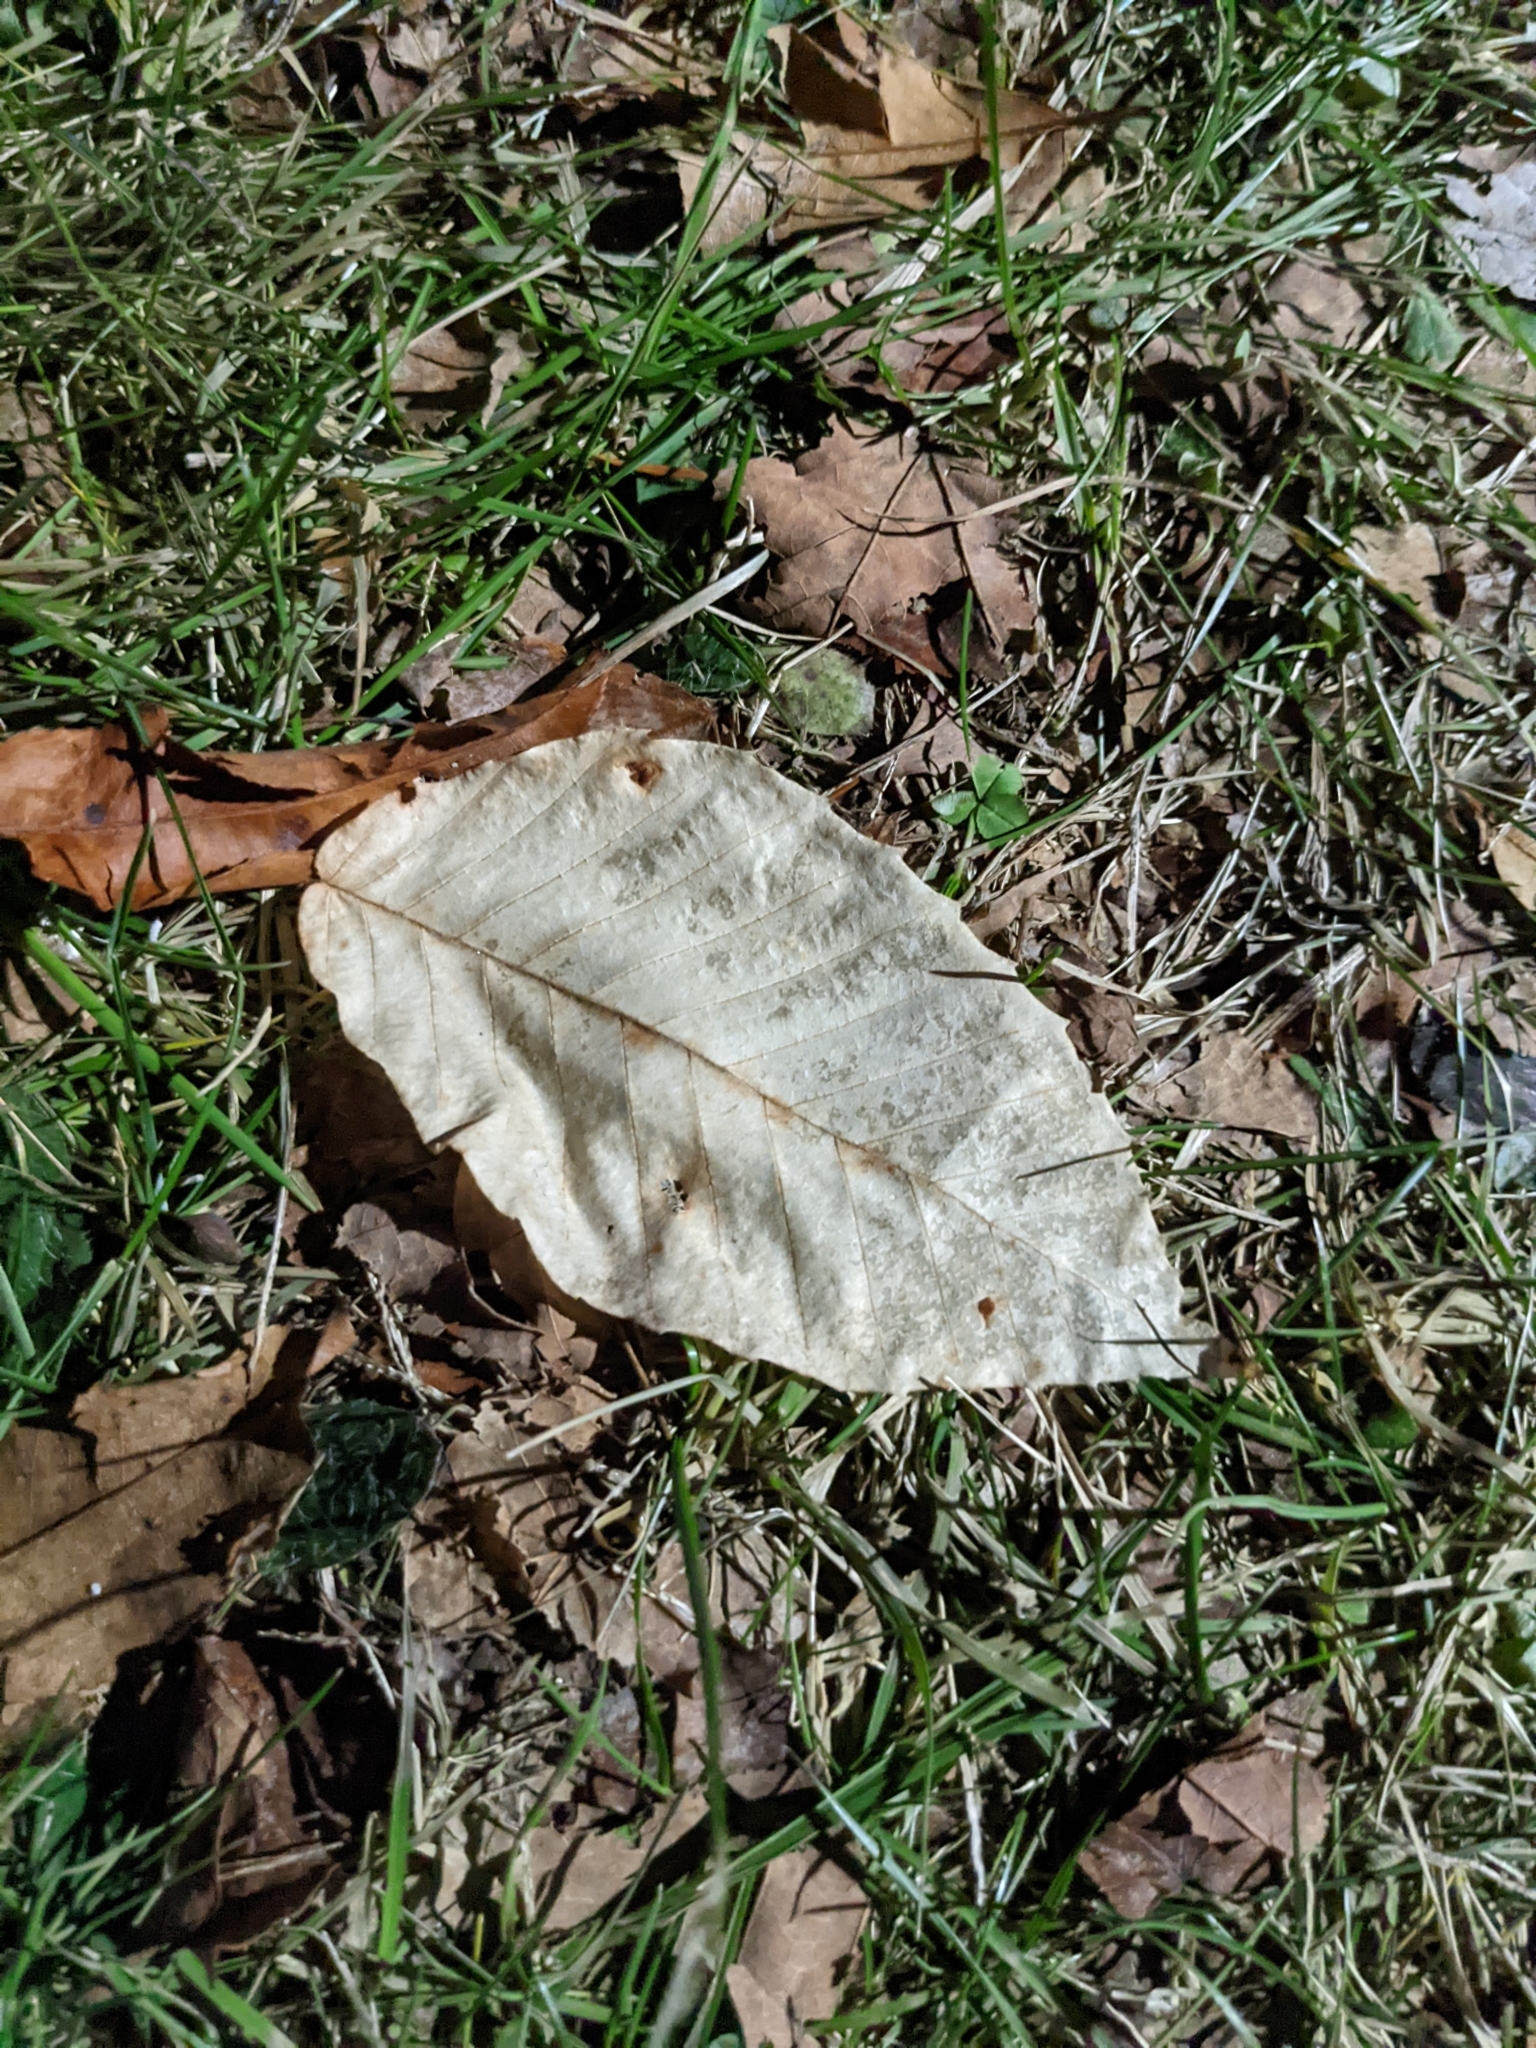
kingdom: Plantae
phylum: Tracheophyta
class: Magnoliopsida
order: Fagales
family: Fagaceae
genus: Fagus
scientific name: Fagus grandifolia
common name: American beech
